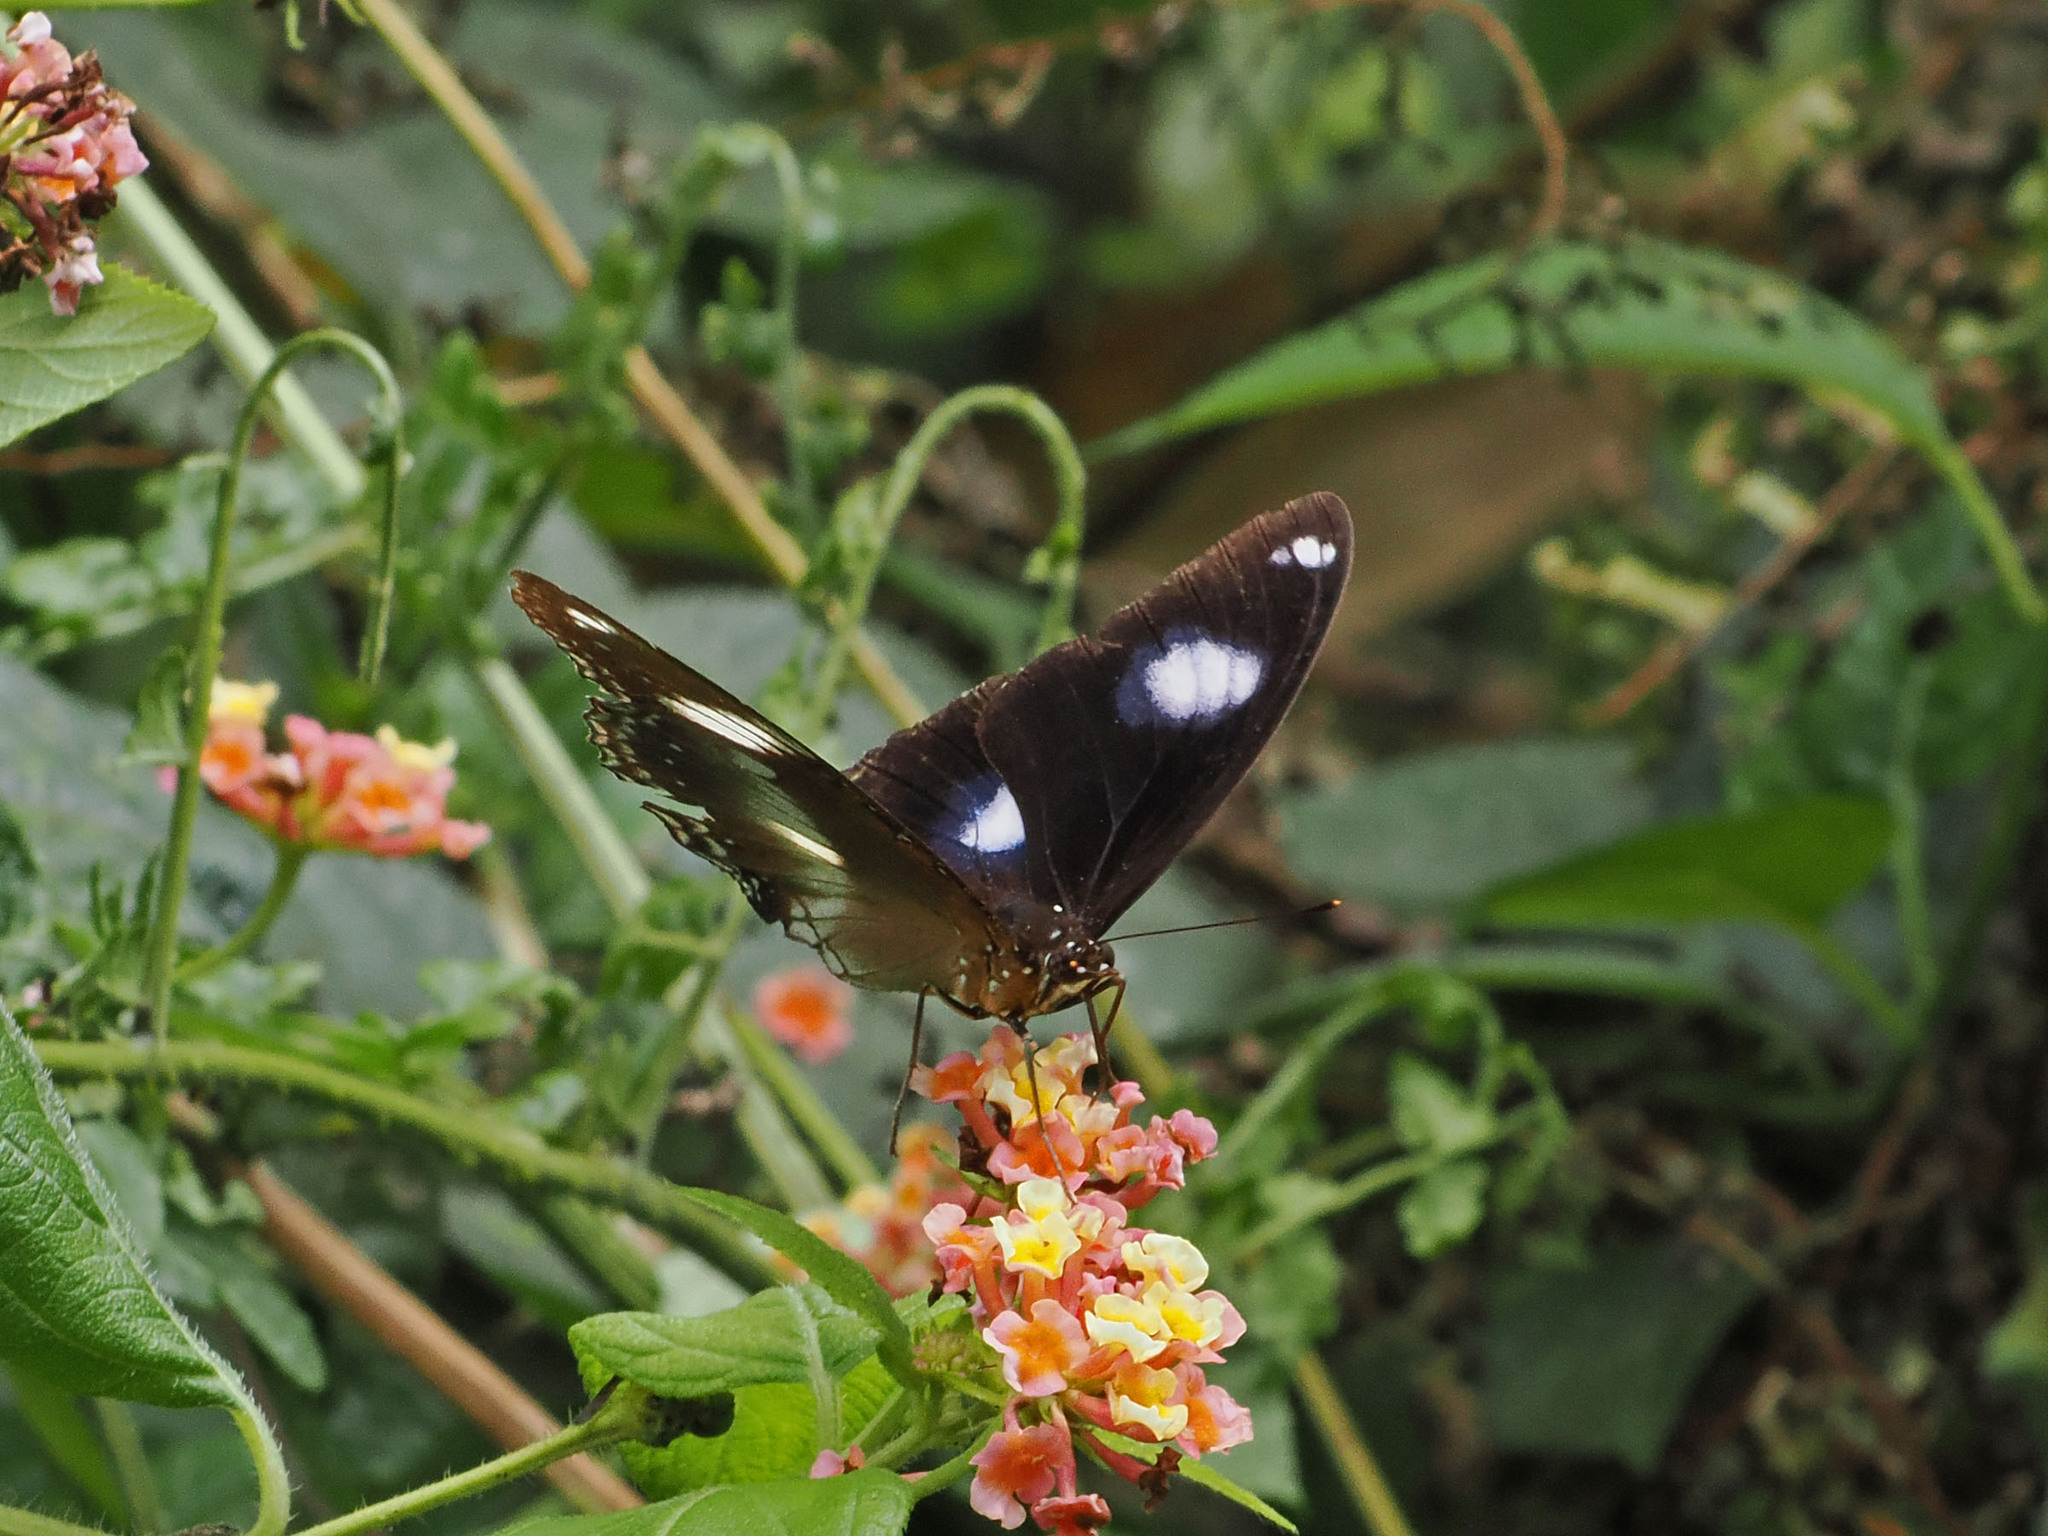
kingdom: Animalia
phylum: Arthropoda
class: Insecta
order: Lepidoptera
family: Nymphalidae
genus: Hypolimnas
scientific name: Hypolimnas bolina
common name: Great eggfly
